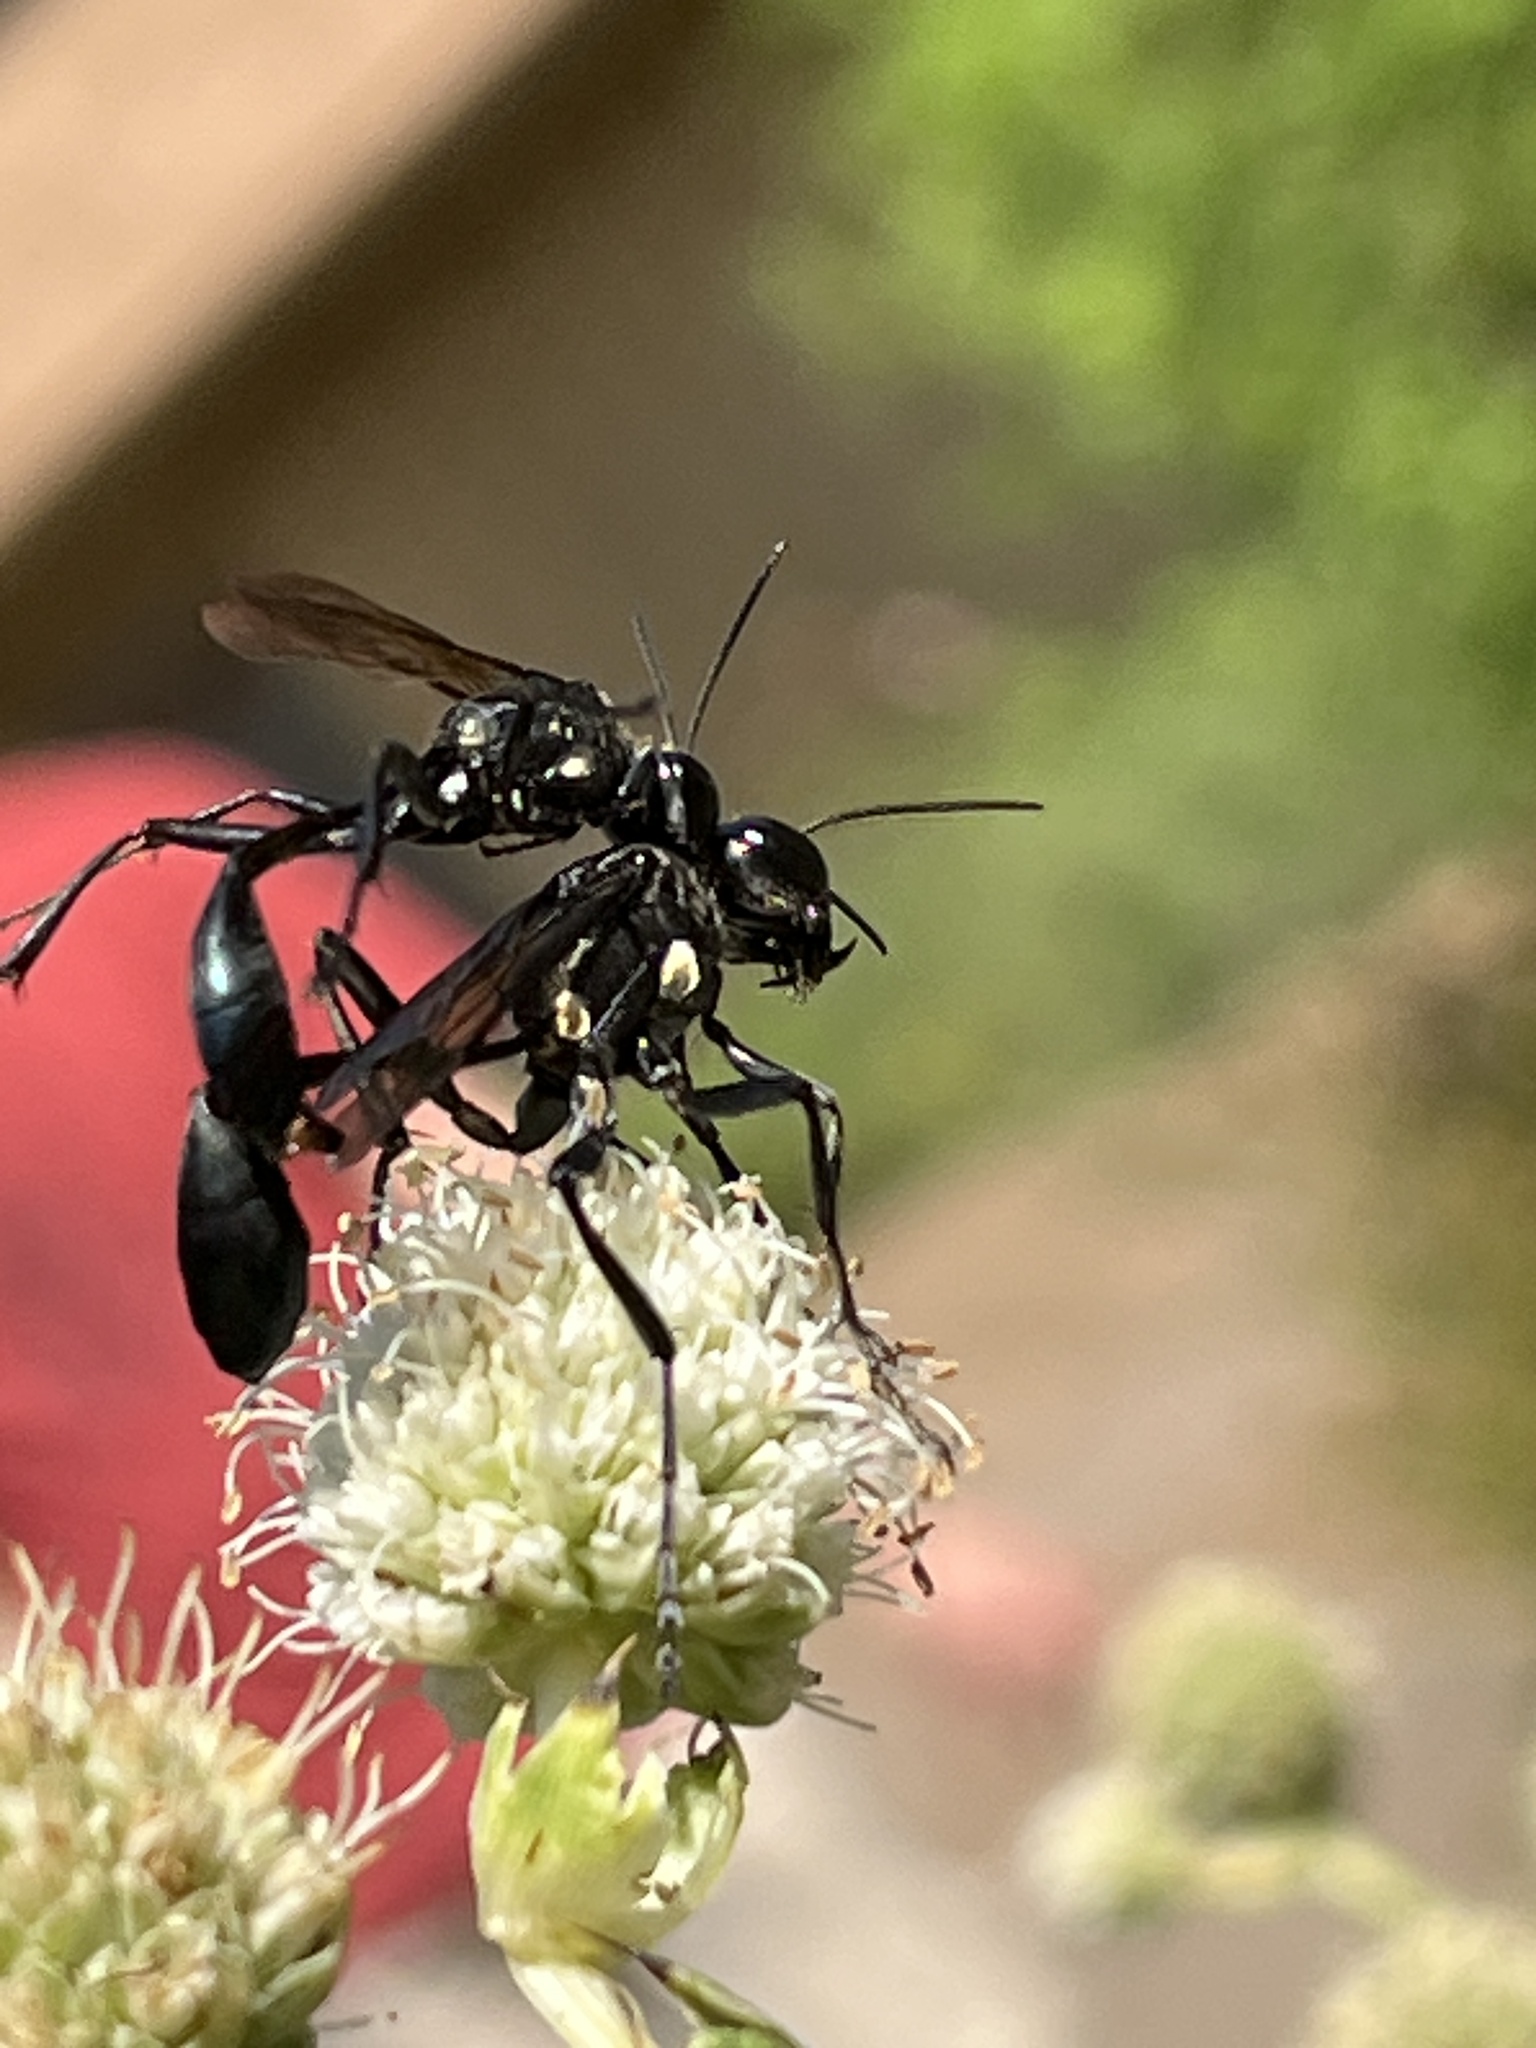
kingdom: Animalia
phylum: Arthropoda
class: Insecta
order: Hymenoptera
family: Sphecidae
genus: Eremnophila
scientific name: Eremnophila aureonotata
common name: Gold-marked thread-waisted wasp
